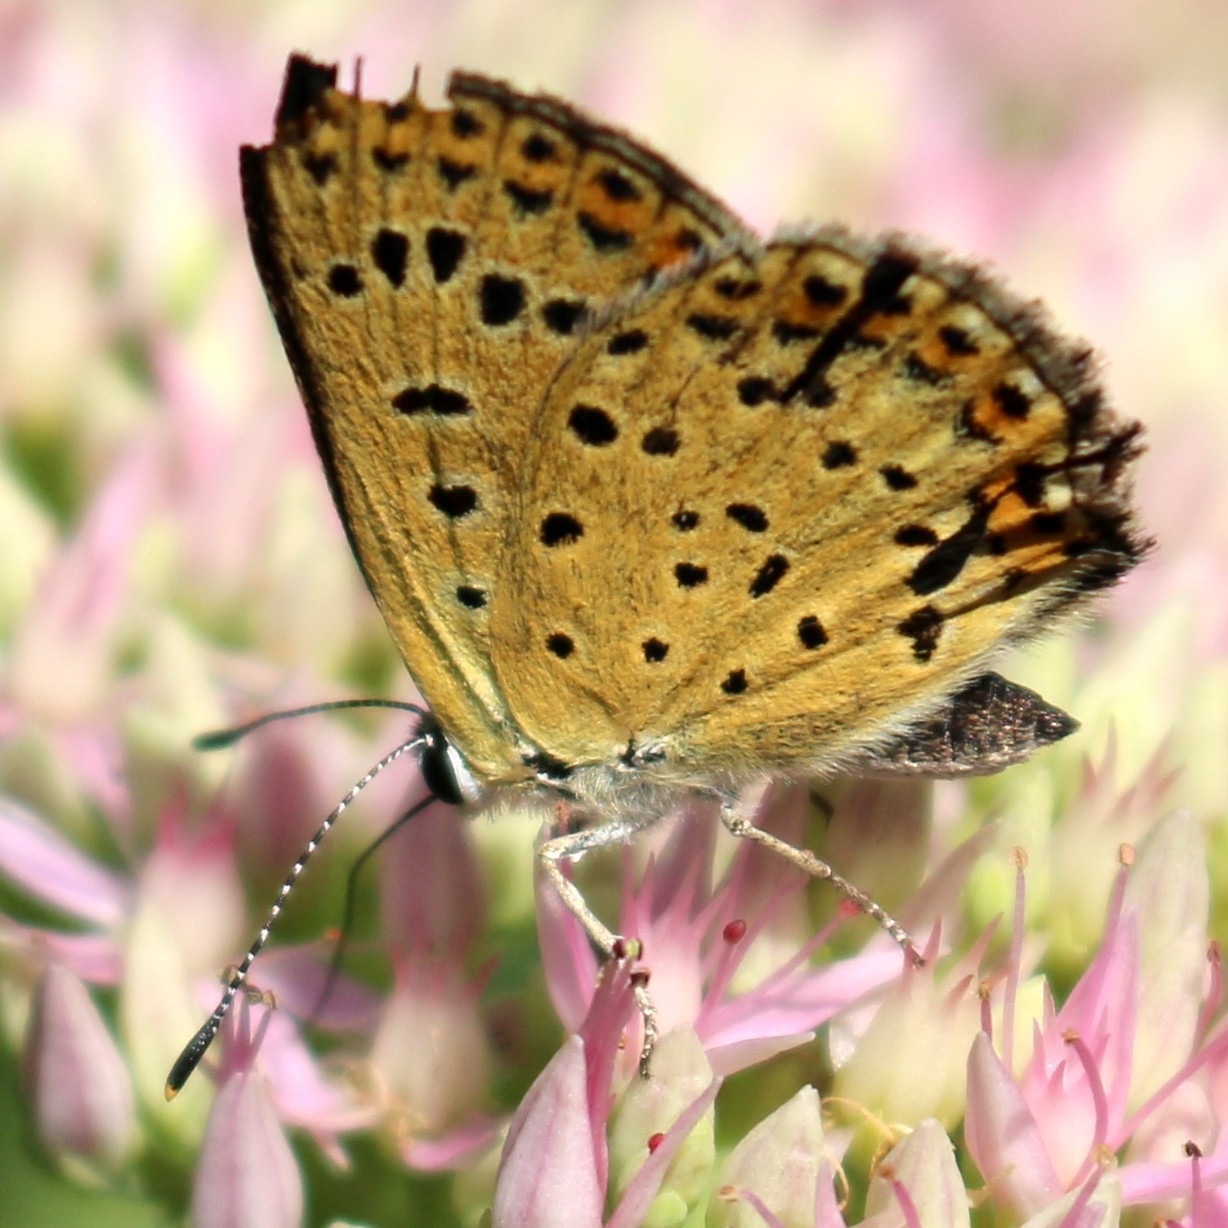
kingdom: Animalia
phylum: Arthropoda
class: Insecta
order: Lepidoptera
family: Lycaenidae
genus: Loweia
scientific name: Loweia tityrus
